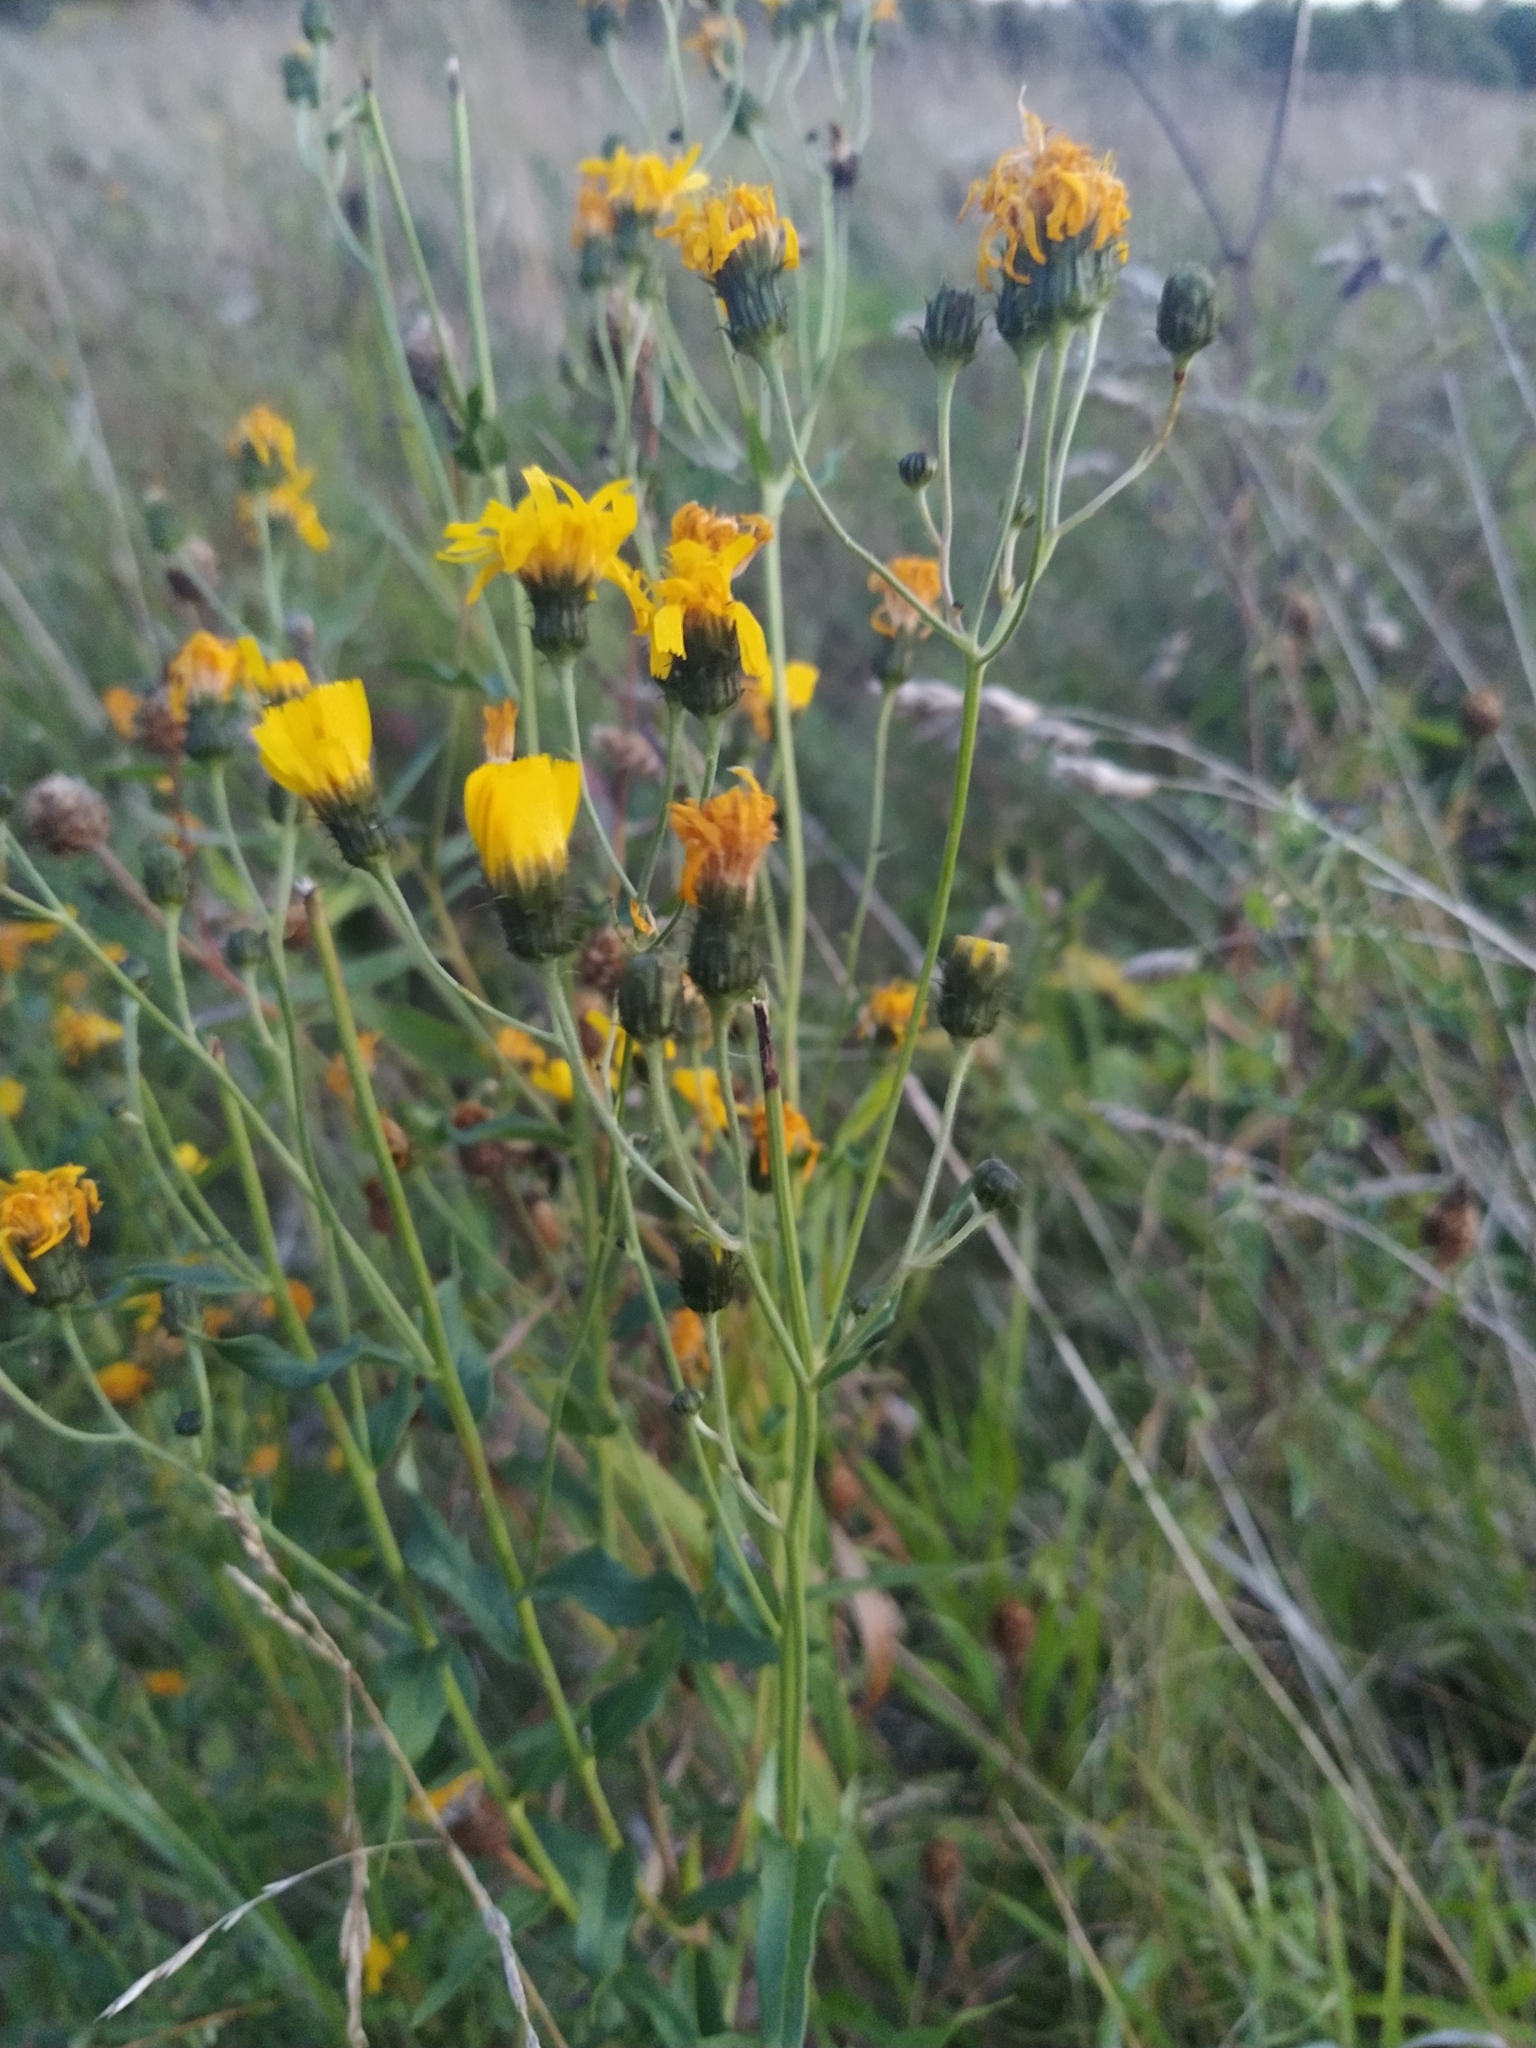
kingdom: Plantae
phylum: Tracheophyta
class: Magnoliopsida
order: Asterales
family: Asteraceae
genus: Hieracium
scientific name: Hieracium umbellatum
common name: Northern hawkweed
